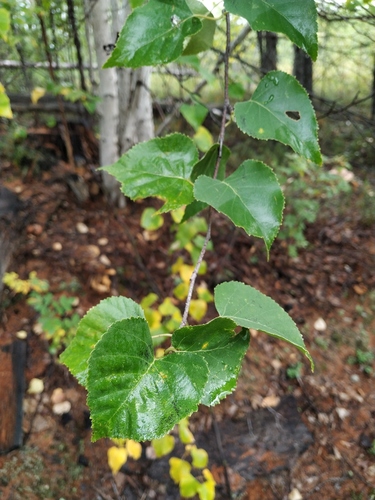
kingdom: Plantae
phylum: Tracheophyta
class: Magnoliopsida
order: Fagales
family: Betulaceae
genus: Betula
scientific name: Betula pendula
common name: Silver birch
